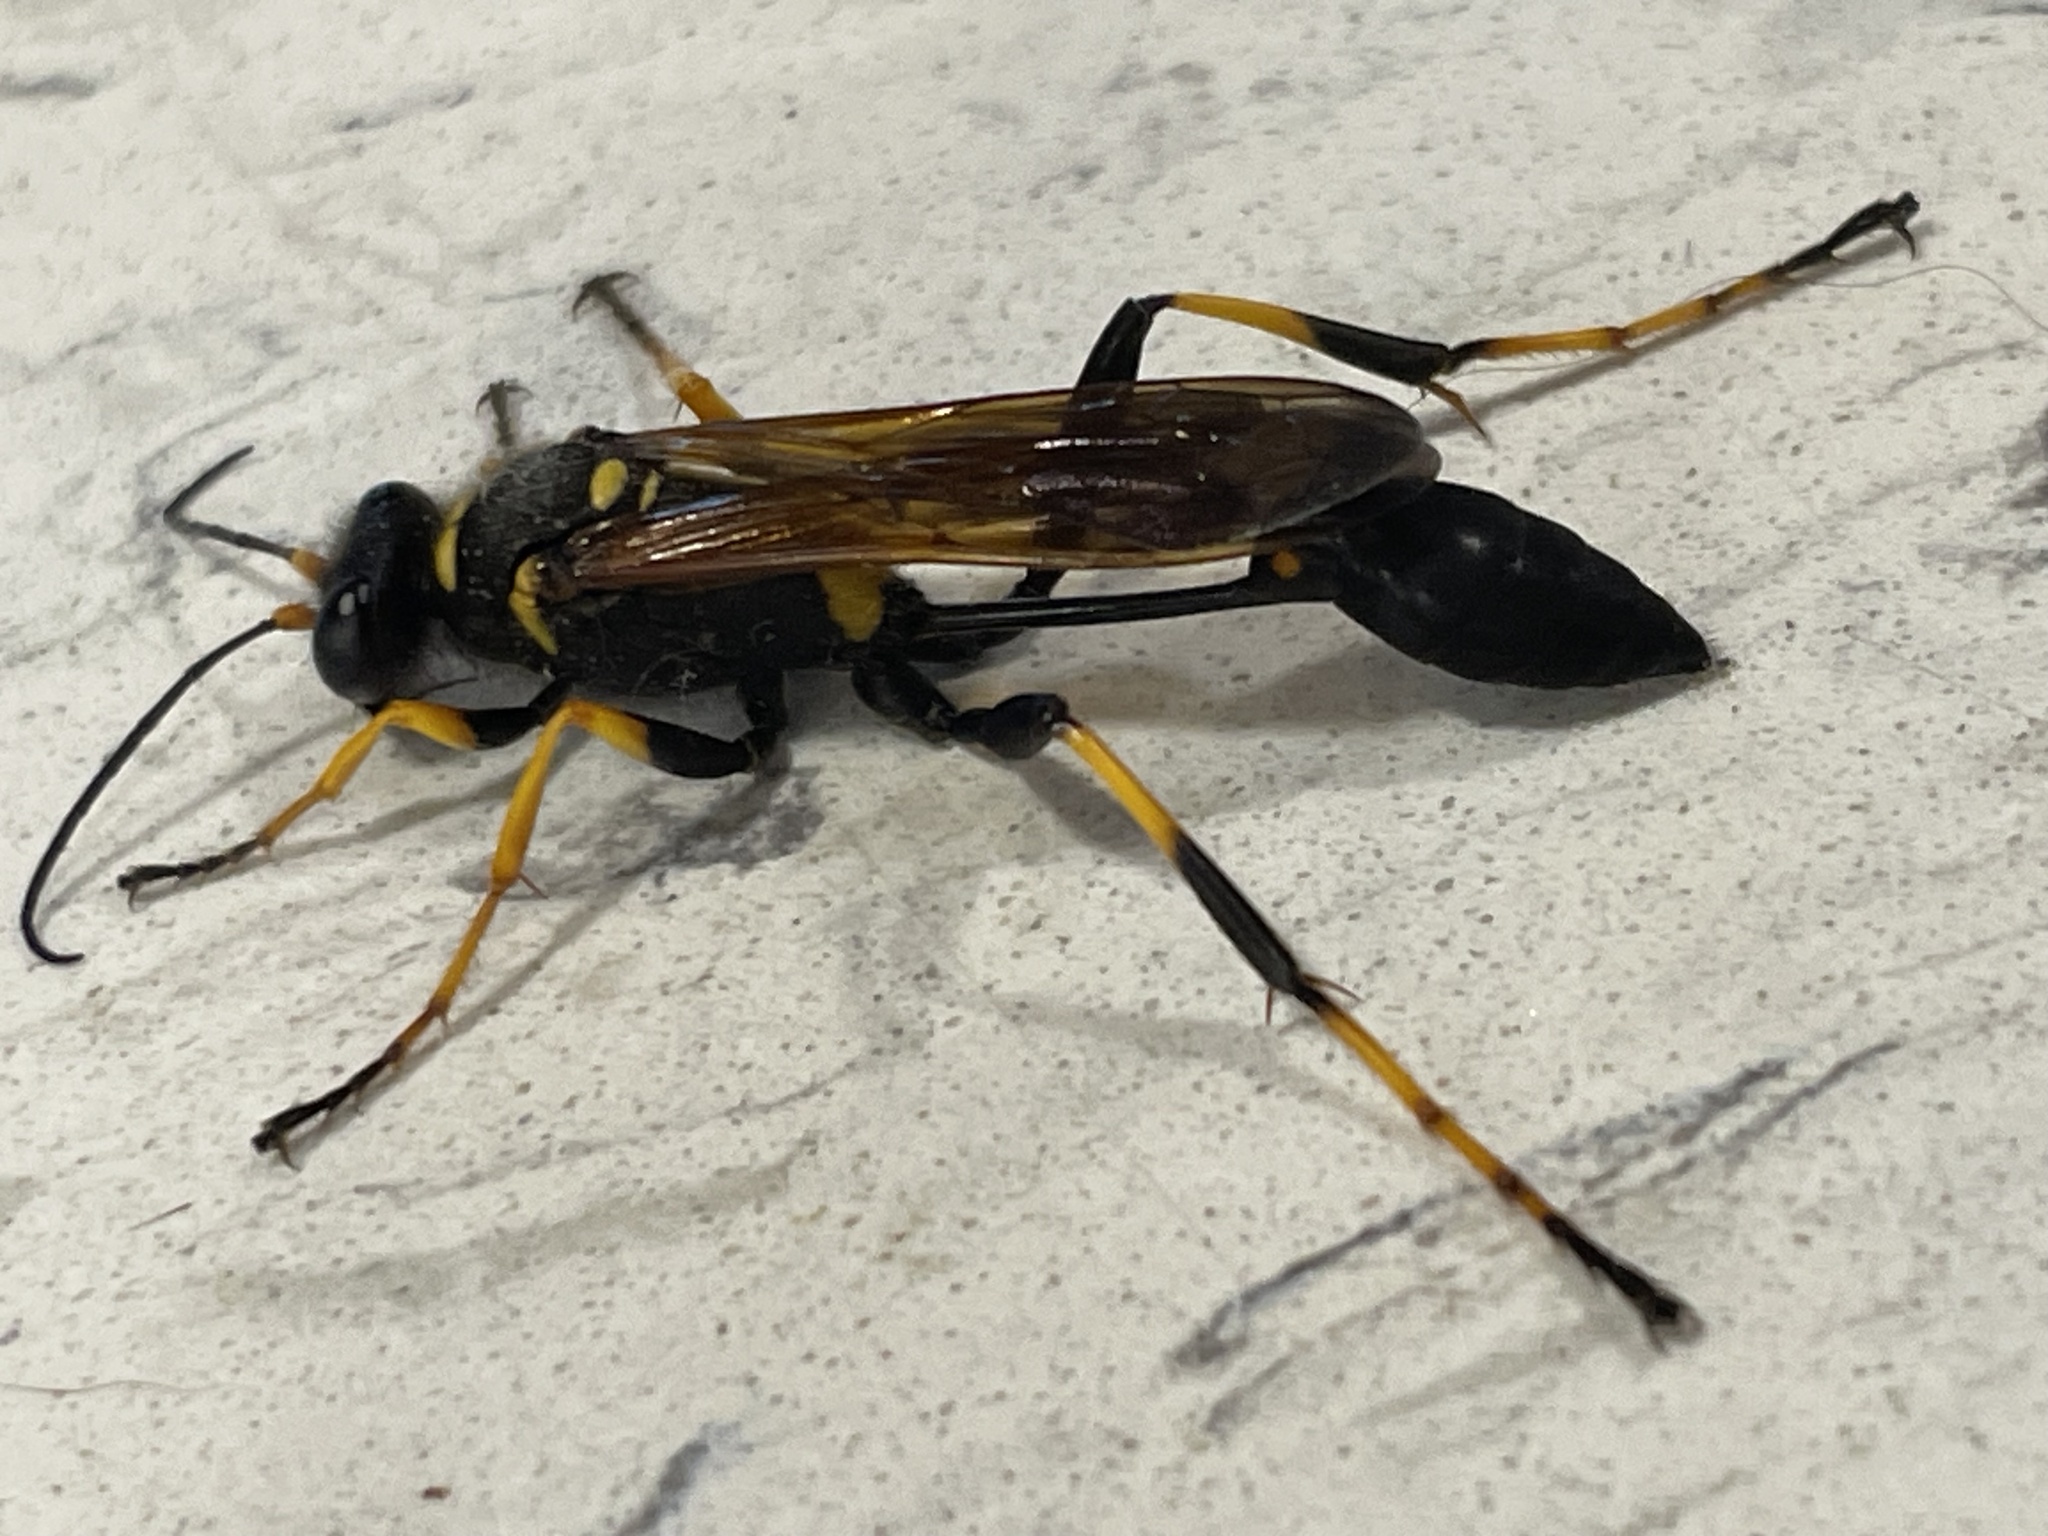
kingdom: Animalia
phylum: Arthropoda
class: Insecta
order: Hymenoptera
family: Sphecidae
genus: Sceliphron
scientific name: Sceliphron caementarium
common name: Mud dauber
